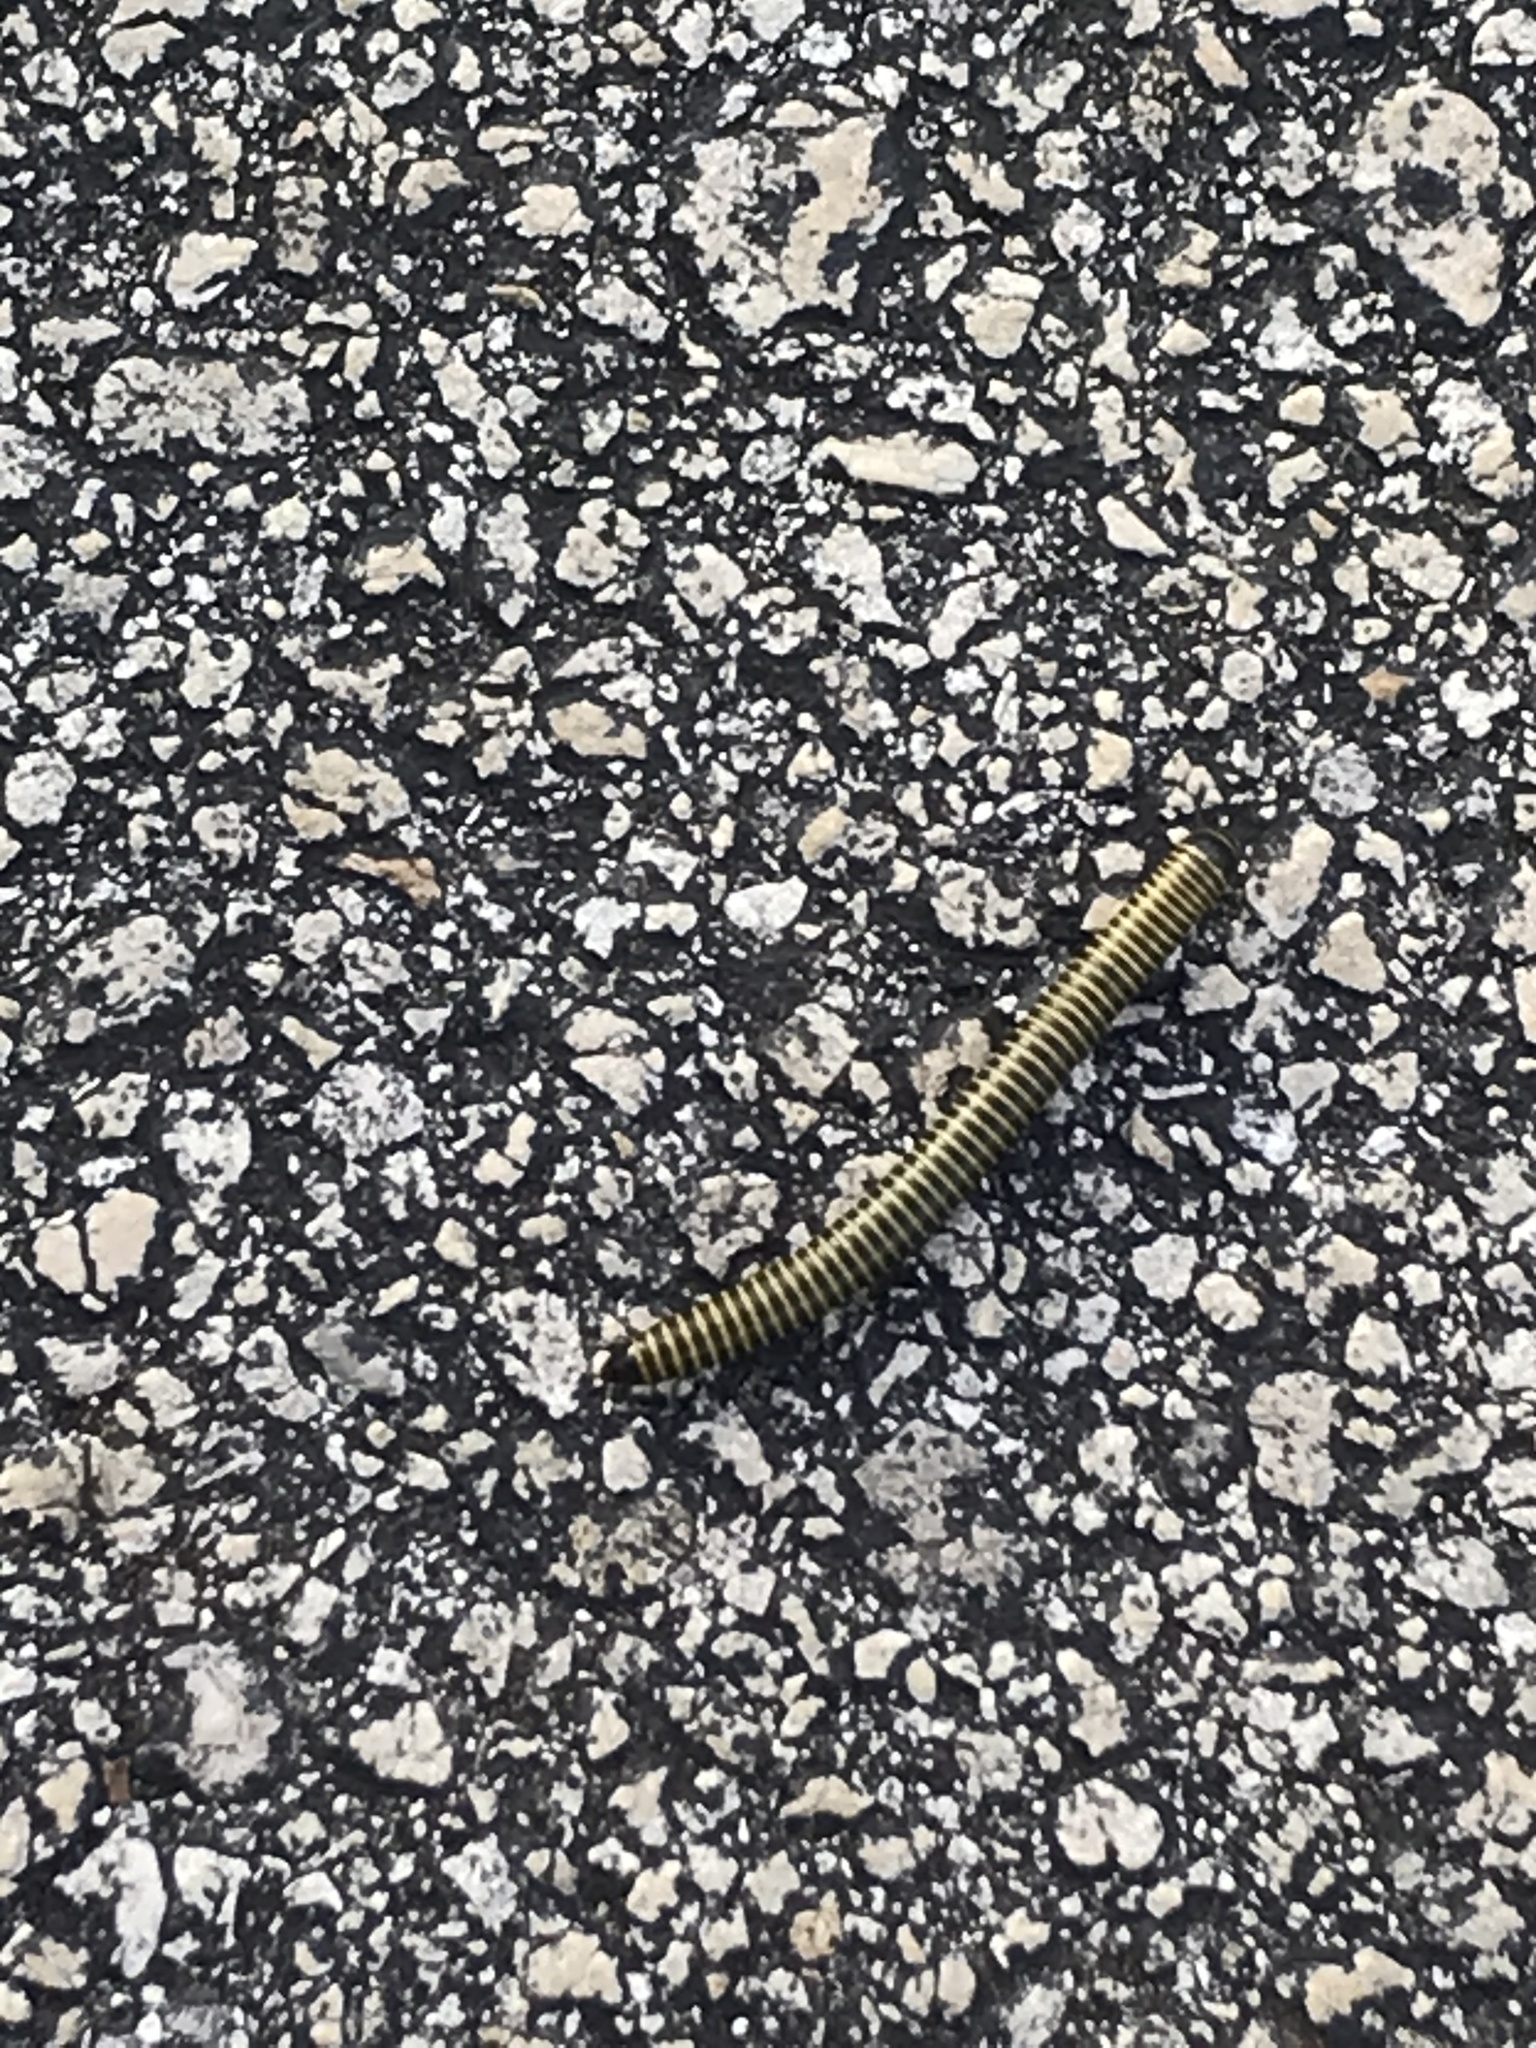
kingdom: Animalia
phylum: Arthropoda
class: Diplopoda
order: Spirobolida
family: Rhinocricidae
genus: Anadenobolus
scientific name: Anadenobolus monilicornis
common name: Caribbean millipede
